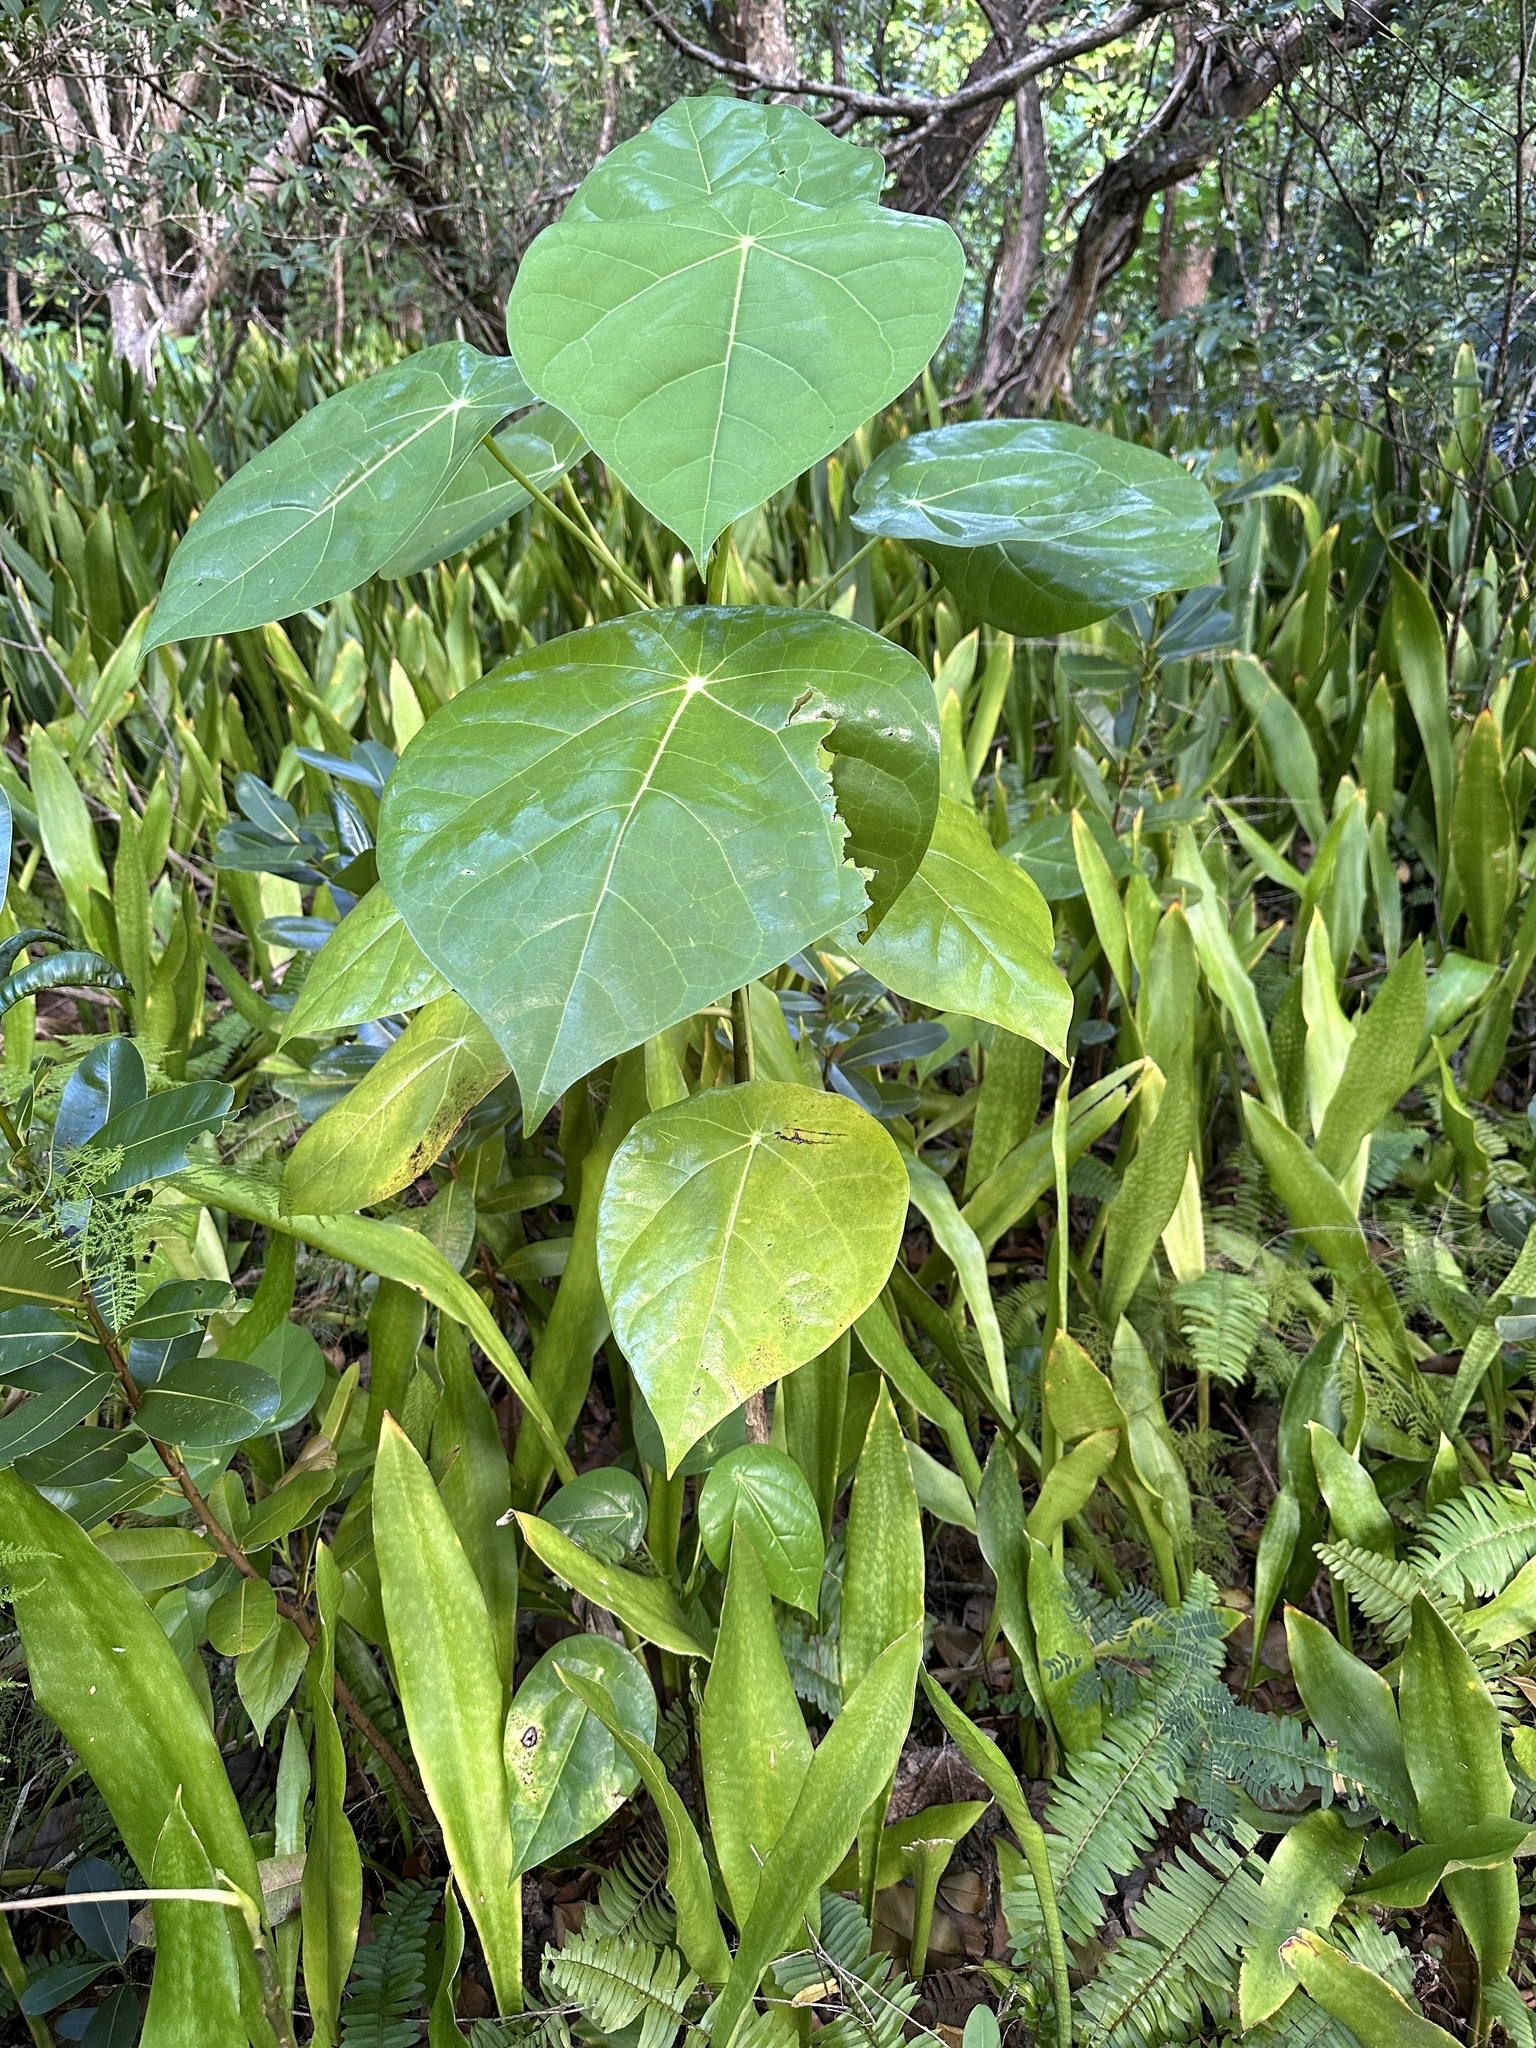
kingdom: Plantae
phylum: Tracheophyta
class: Magnoliopsida
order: Laurales
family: Hernandiaceae
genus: Hernandia
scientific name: Hernandia nymphaeifolia
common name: Sea hearse
